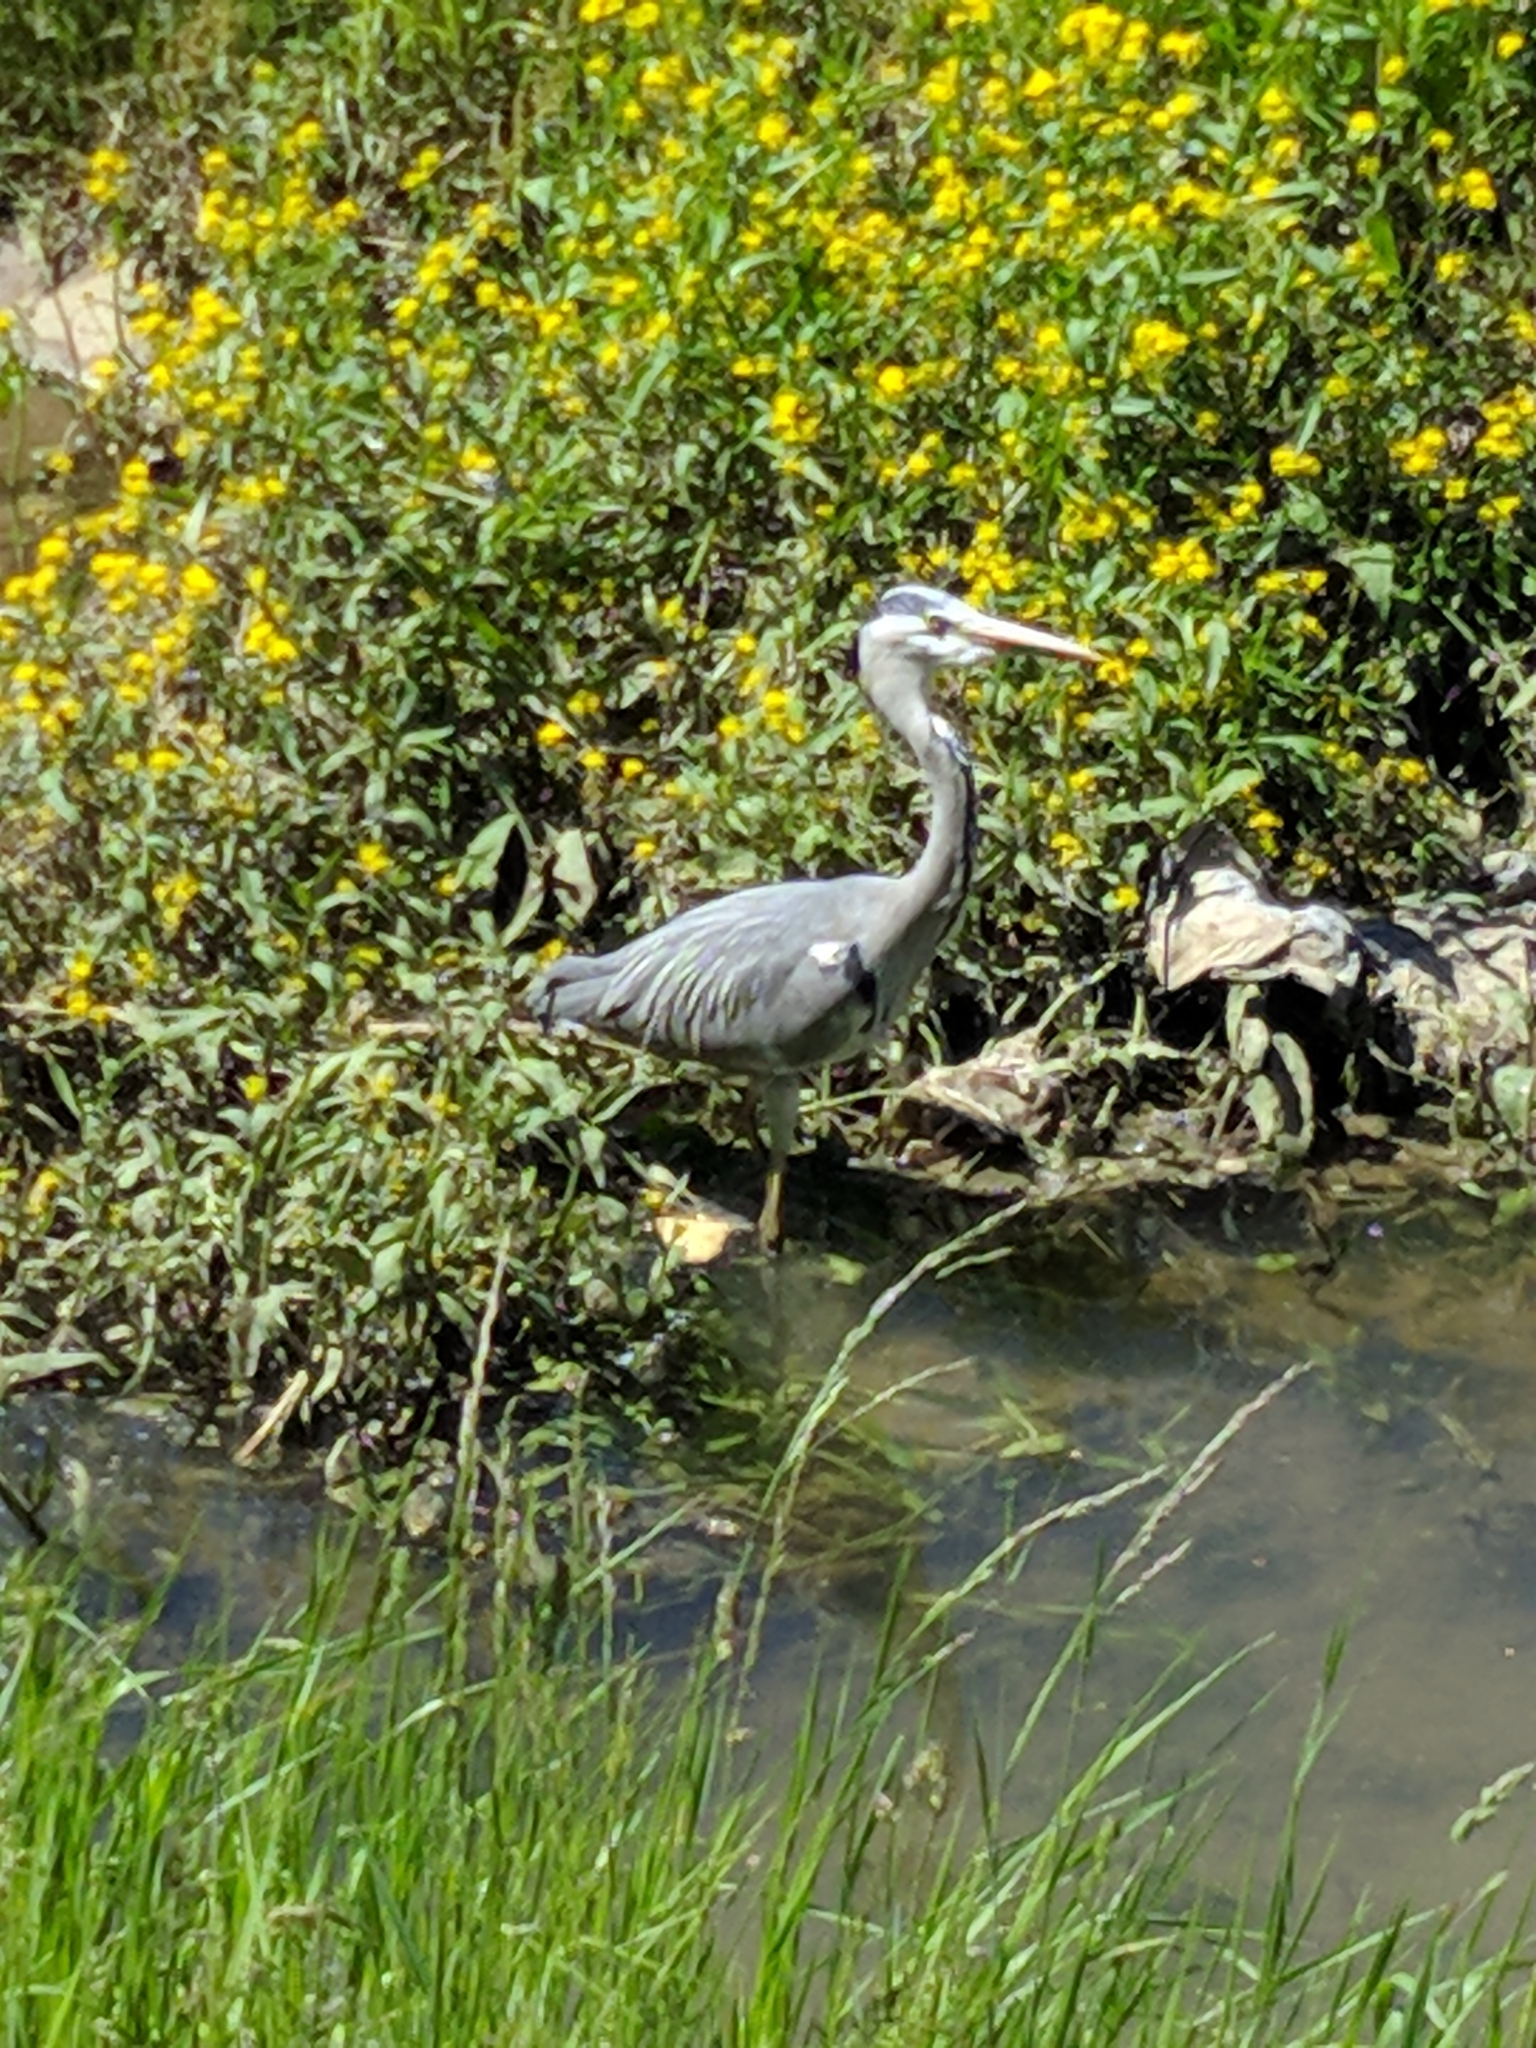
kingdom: Animalia
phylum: Chordata
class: Aves
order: Pelecaniformes
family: Ardeidae
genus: Ardea
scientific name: Ardea cinerea
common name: Grey heron
